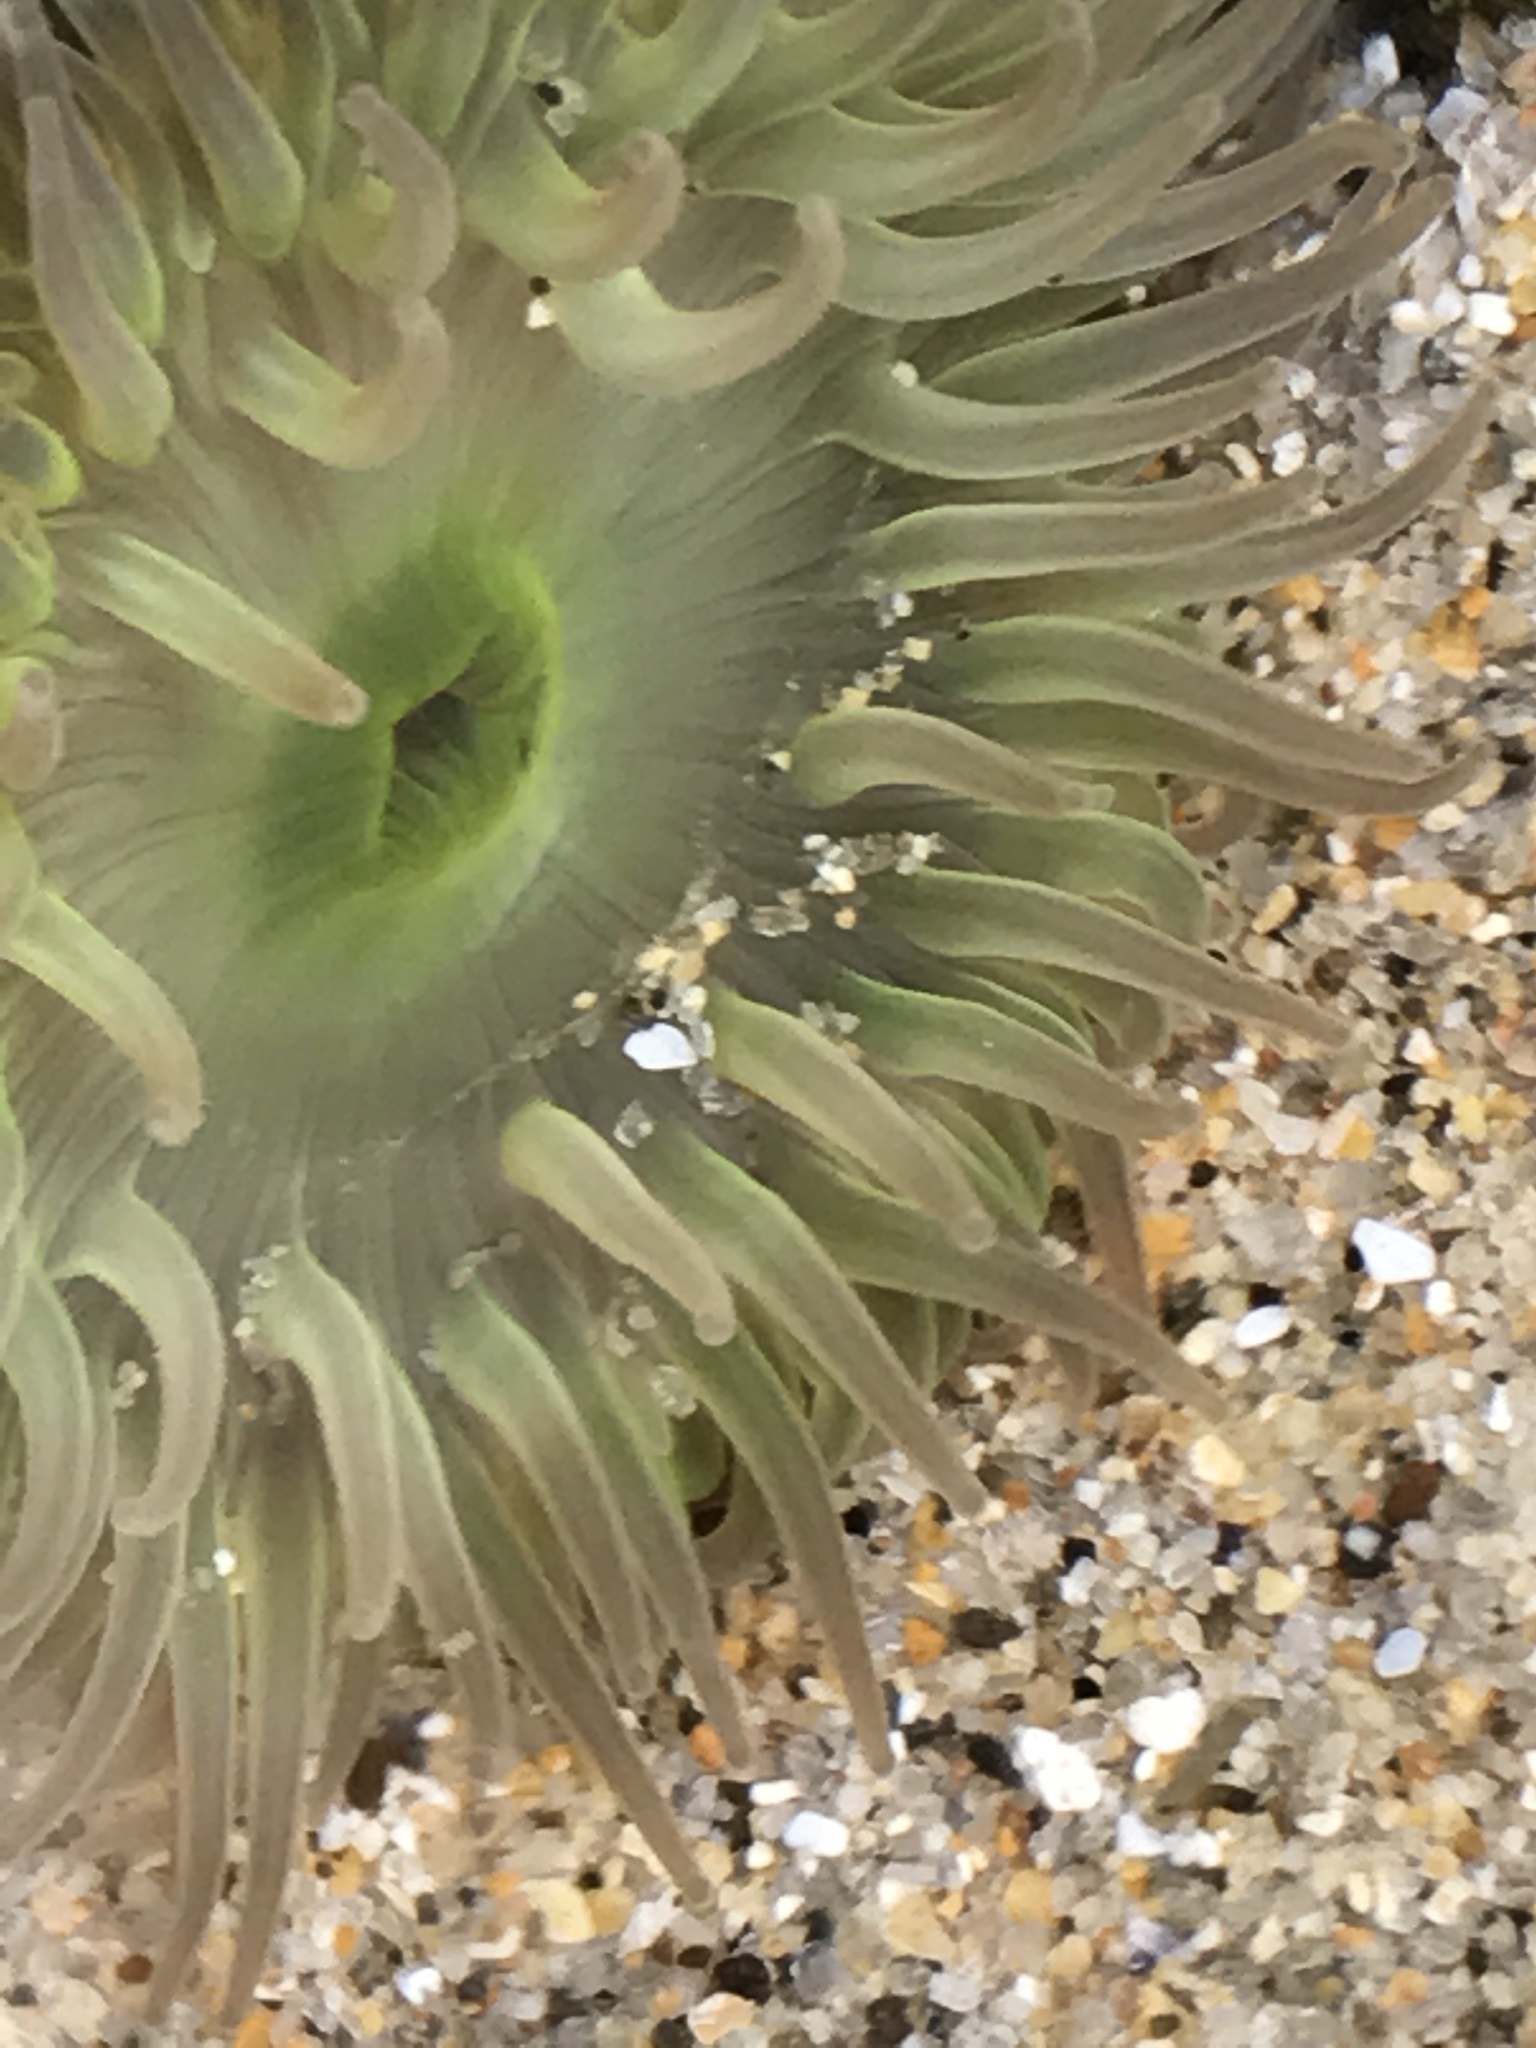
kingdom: Animalia
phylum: Cnidaria
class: Anthozoa
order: Actiniaria
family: Actiniidae
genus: Anthopleura
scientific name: Anthopleura elegantissima
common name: Clonal anemone
